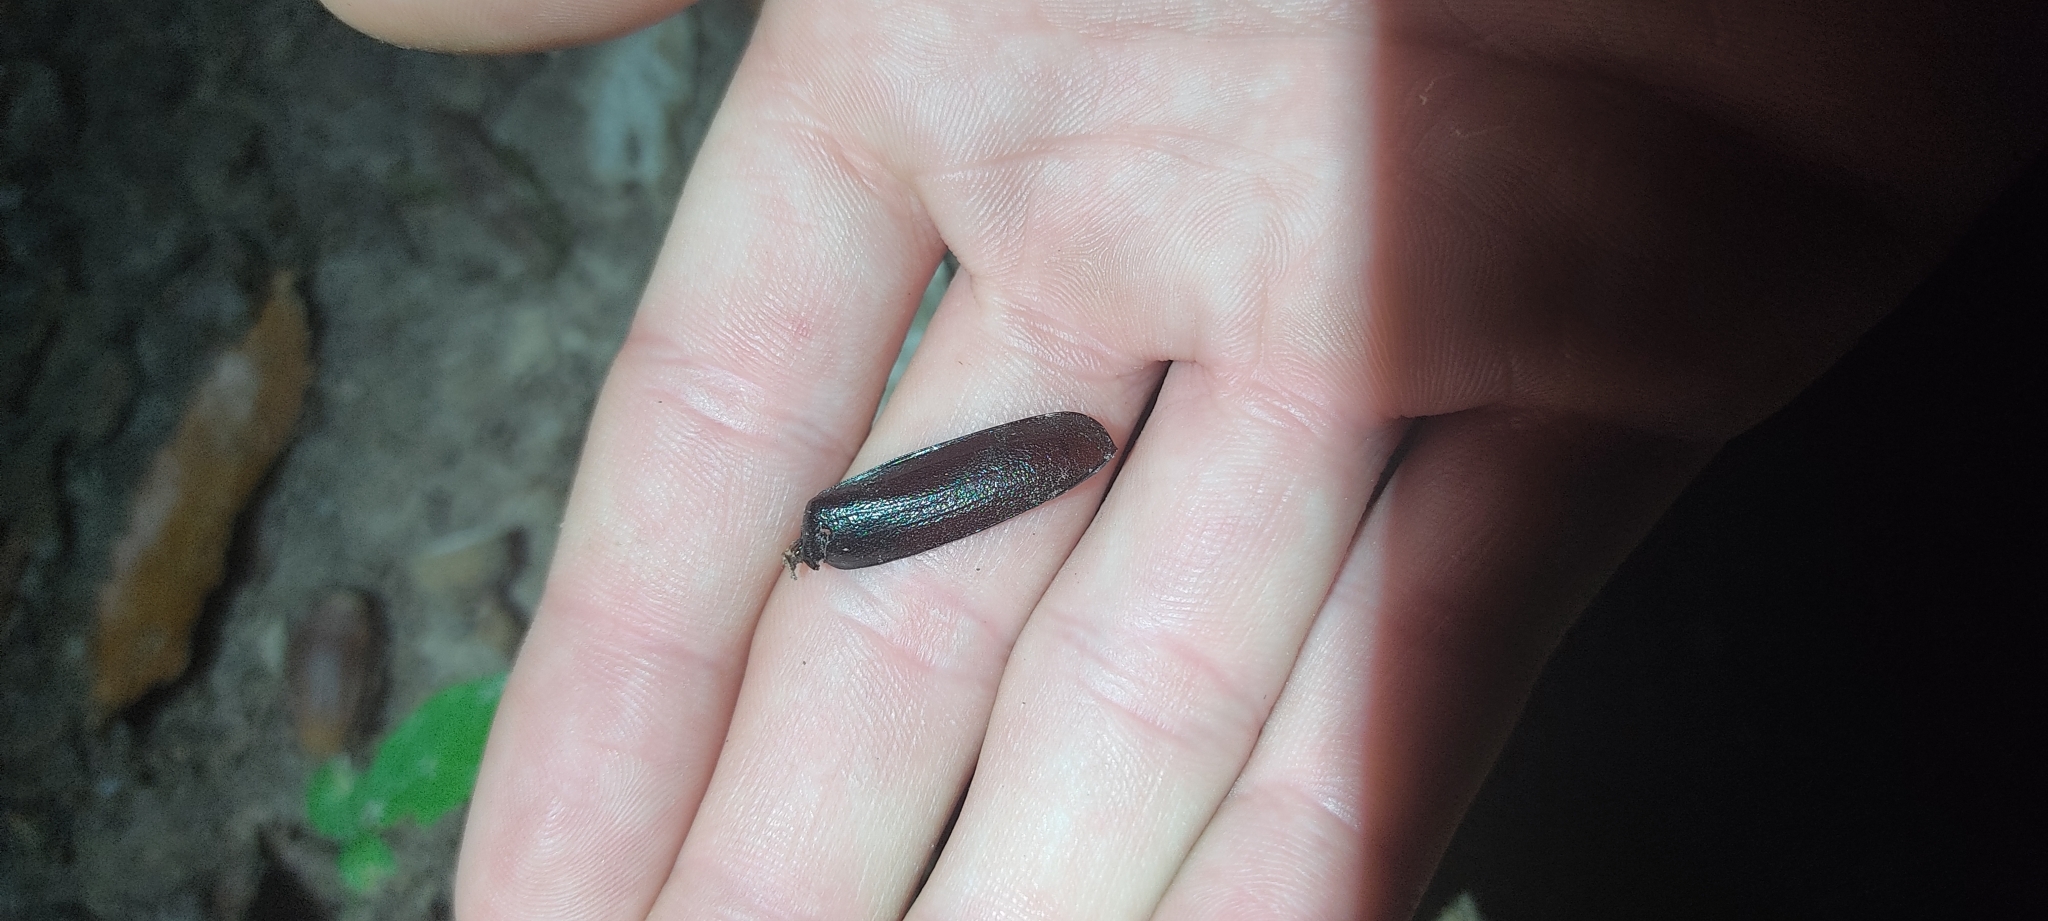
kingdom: Animalia
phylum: Arthropoda
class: Insecta
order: Coleoptera
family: Cerambycidae
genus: Prionus
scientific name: Prionus coriarius
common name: Tanner beetle
